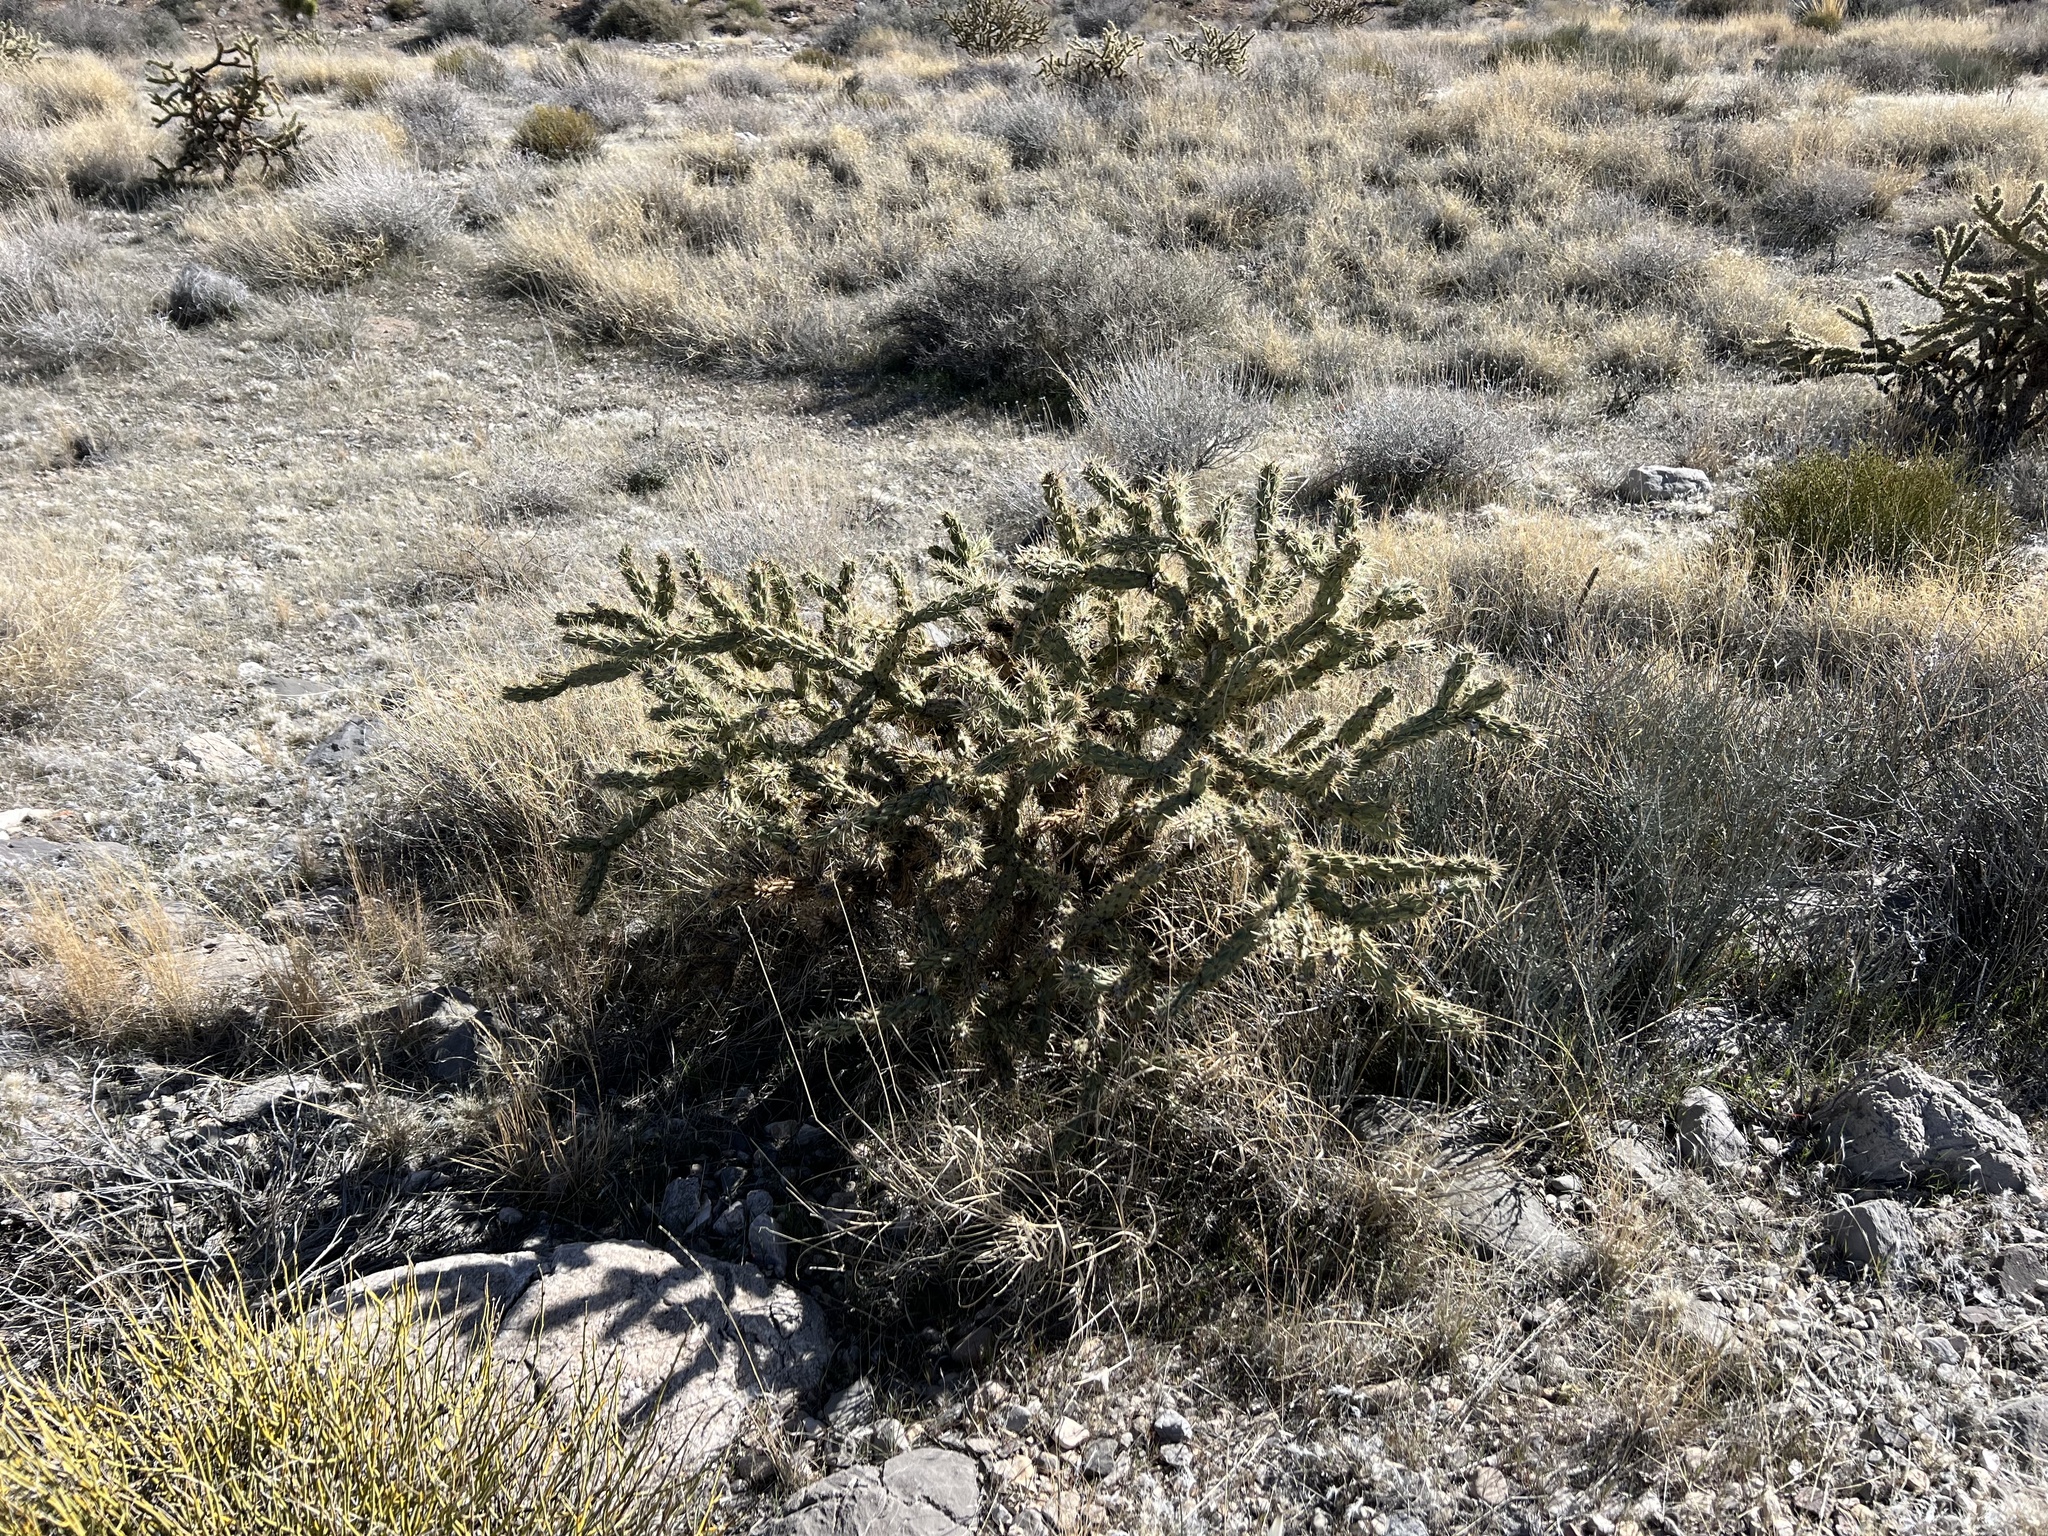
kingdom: Plantae
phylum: Tracheophyta
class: Magnoliopsida
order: Caryophyllales
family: Cactaceae
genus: Cylindropuntia
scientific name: Cylindropuntia acanthocarpa
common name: Buckhorn cholla
